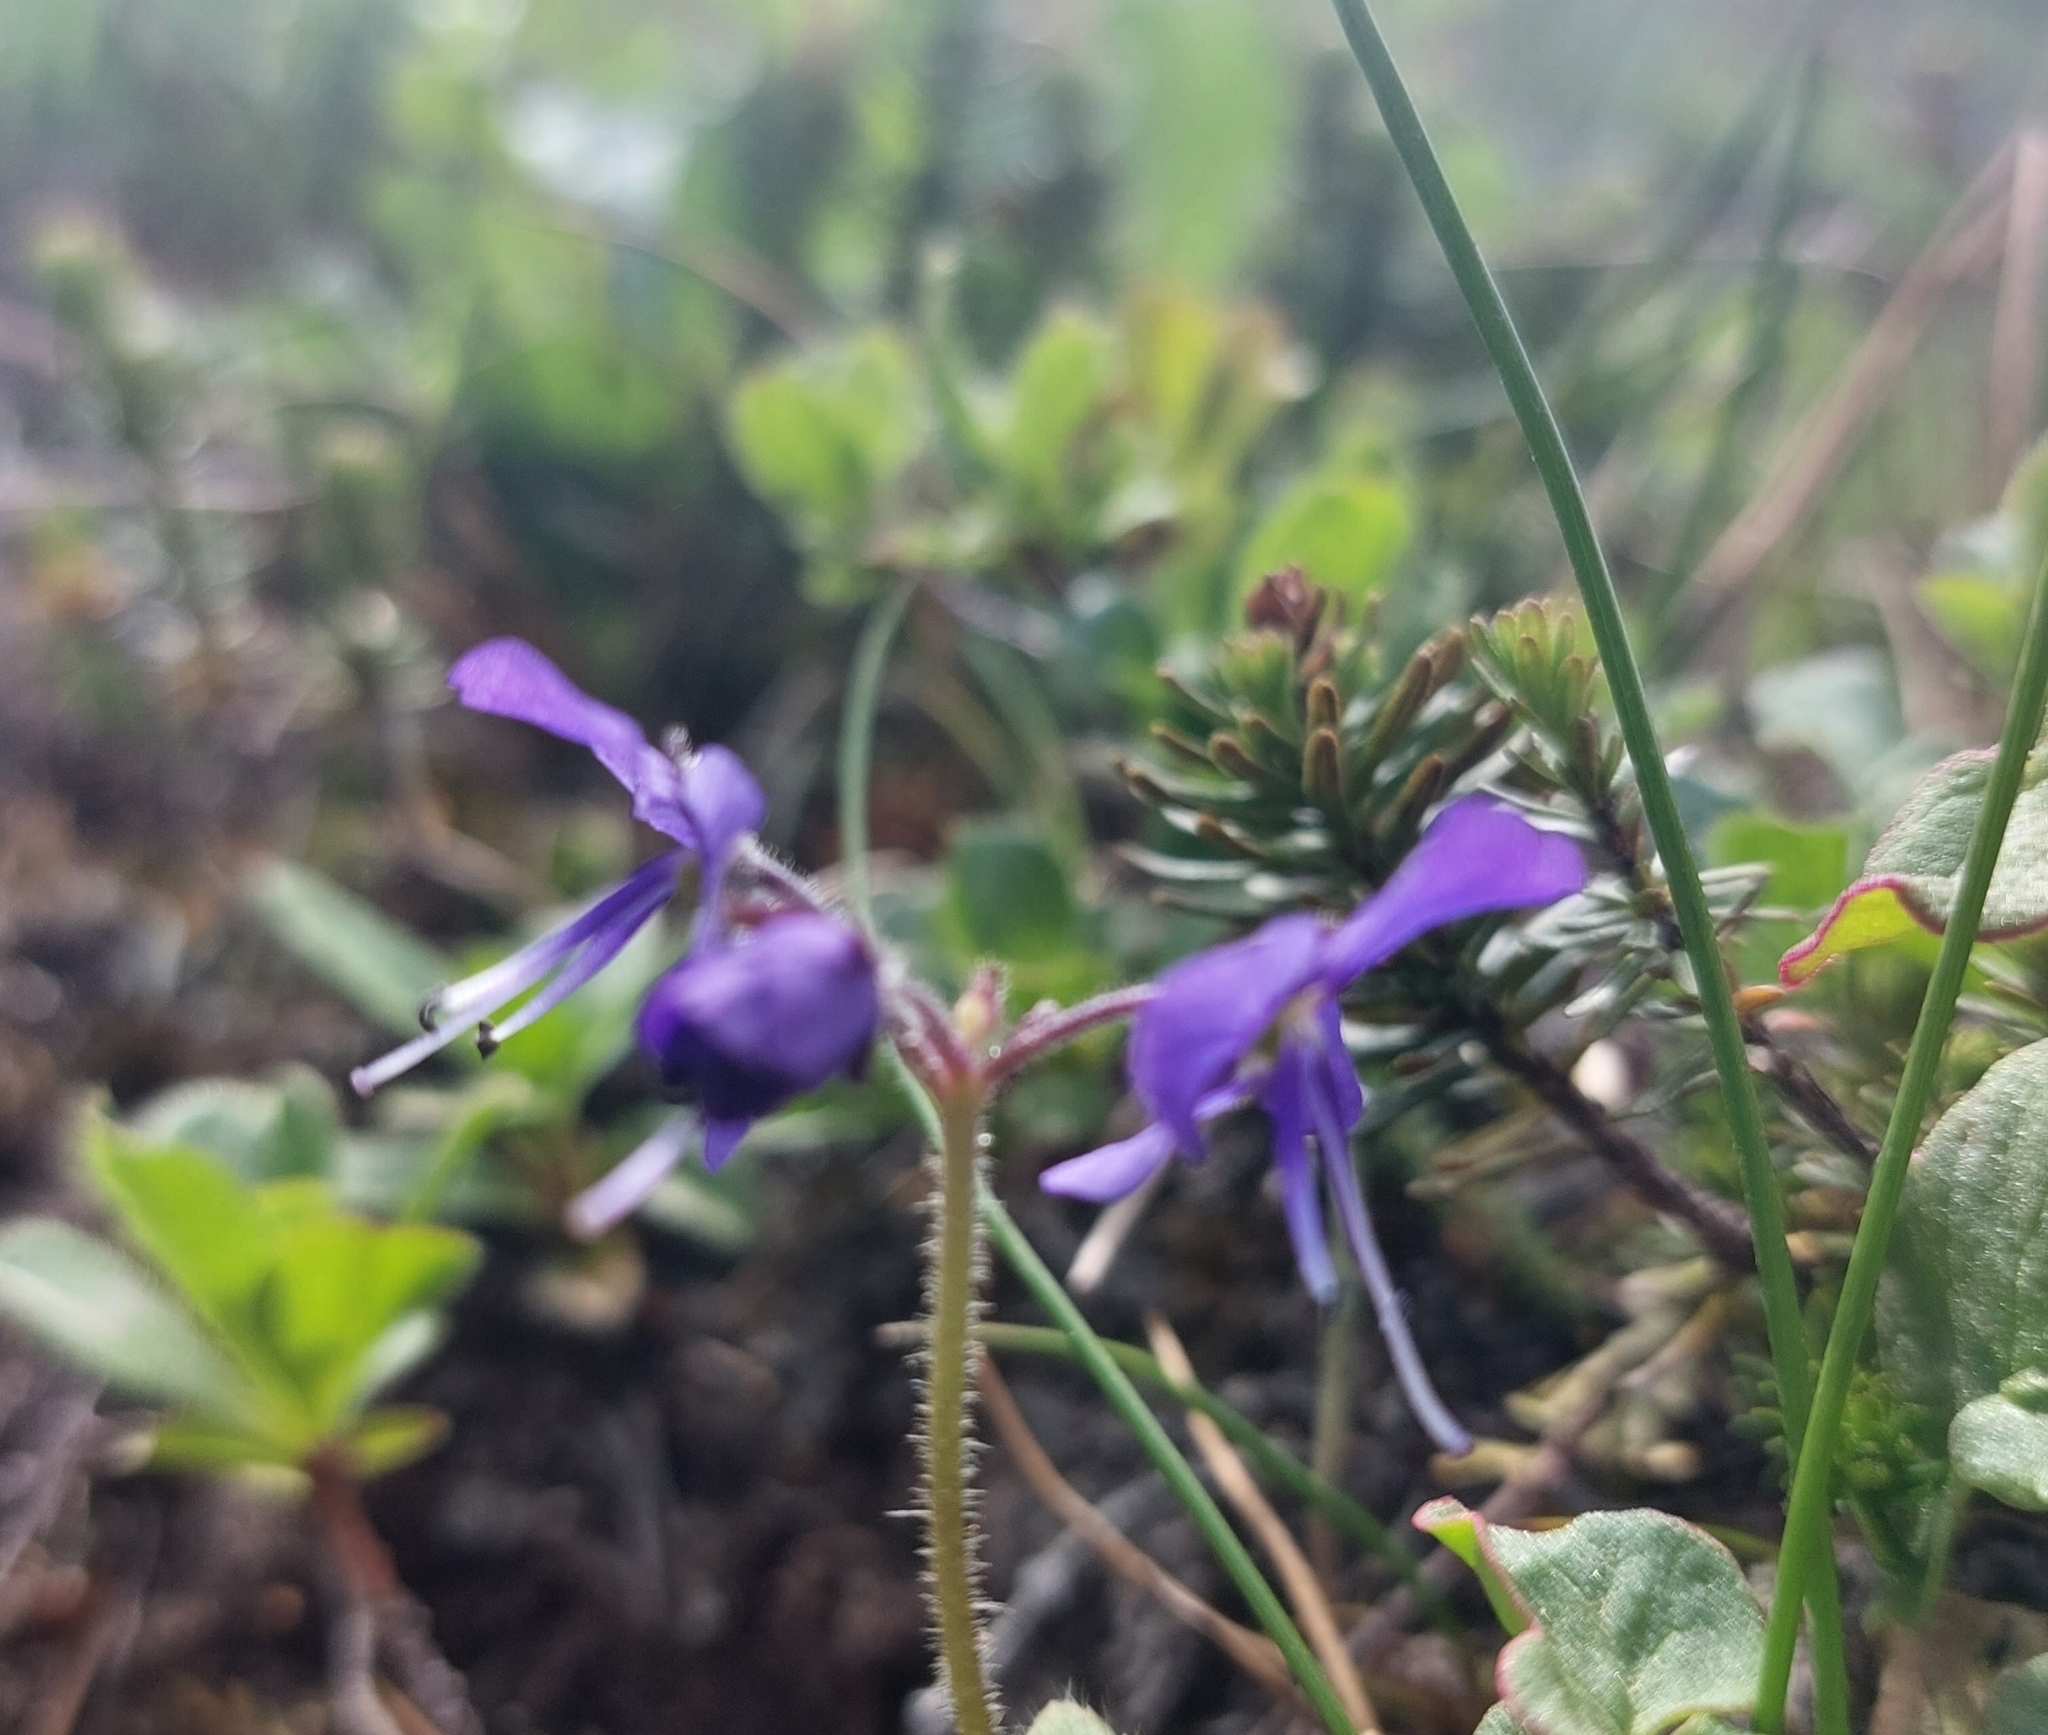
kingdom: Plantae
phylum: Tracheophyta
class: Magnoliopsida
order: Lamiales
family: Plantaginaceae
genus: Veronica
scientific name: Veronica grandiflora
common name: Large-flower speedwell
